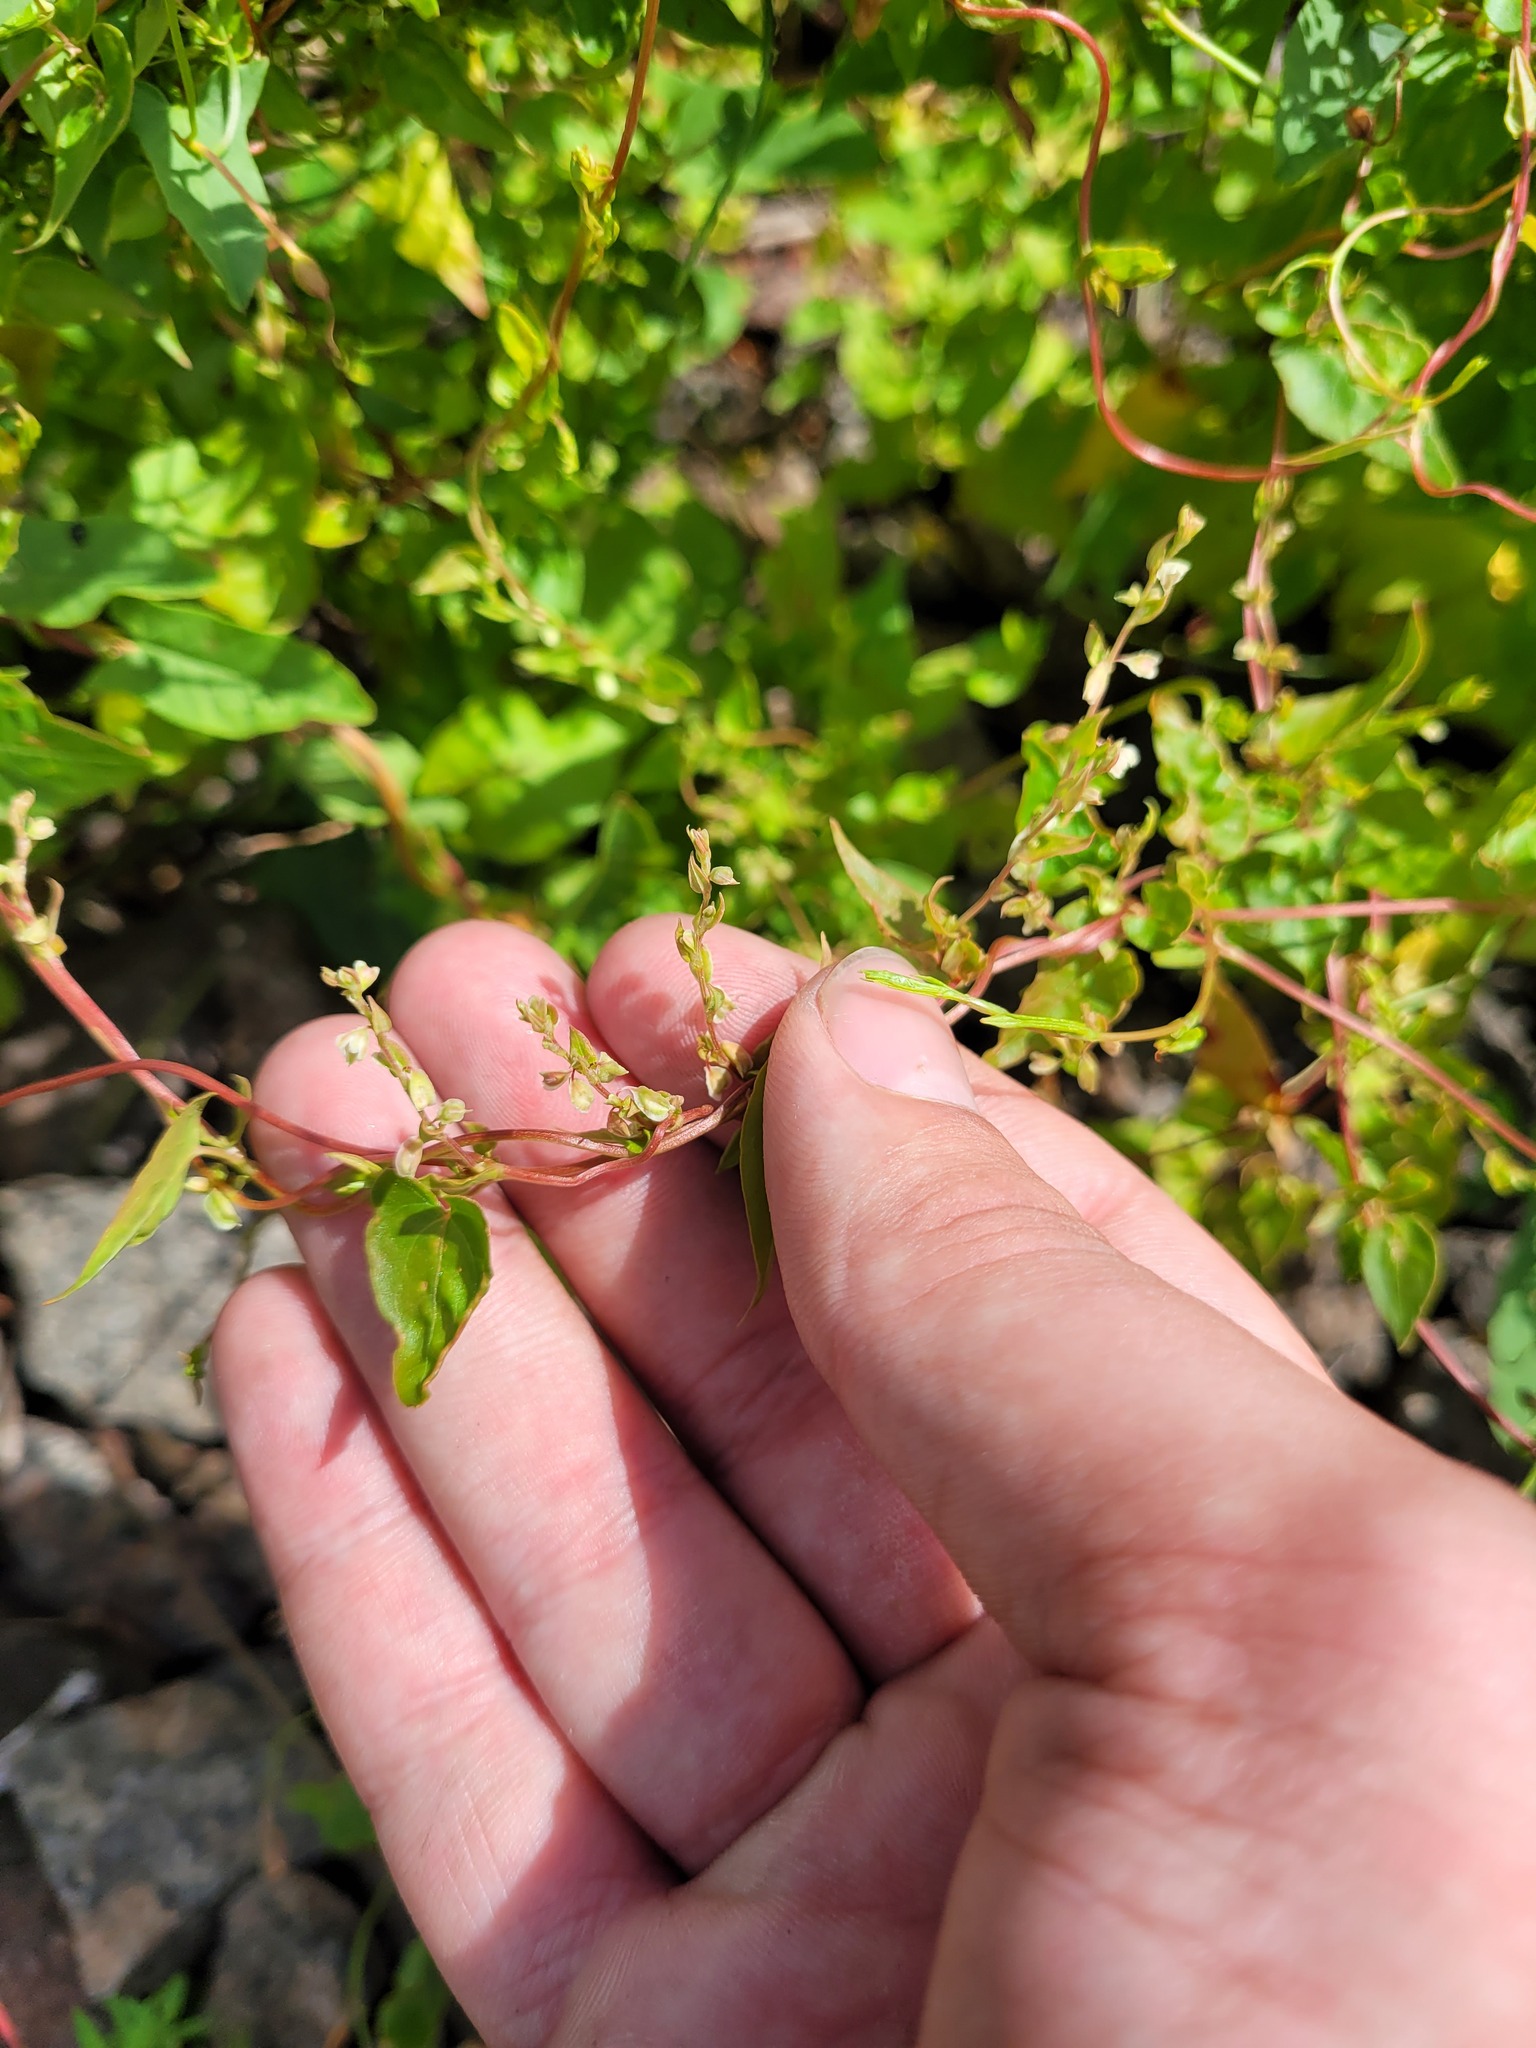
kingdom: Plantae
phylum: Tracheophyta
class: Magnoliopsida
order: Caryophyllales
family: Polygonaceae
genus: Fallopia
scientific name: Fallopia dumetorum
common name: Copse-bindweed
